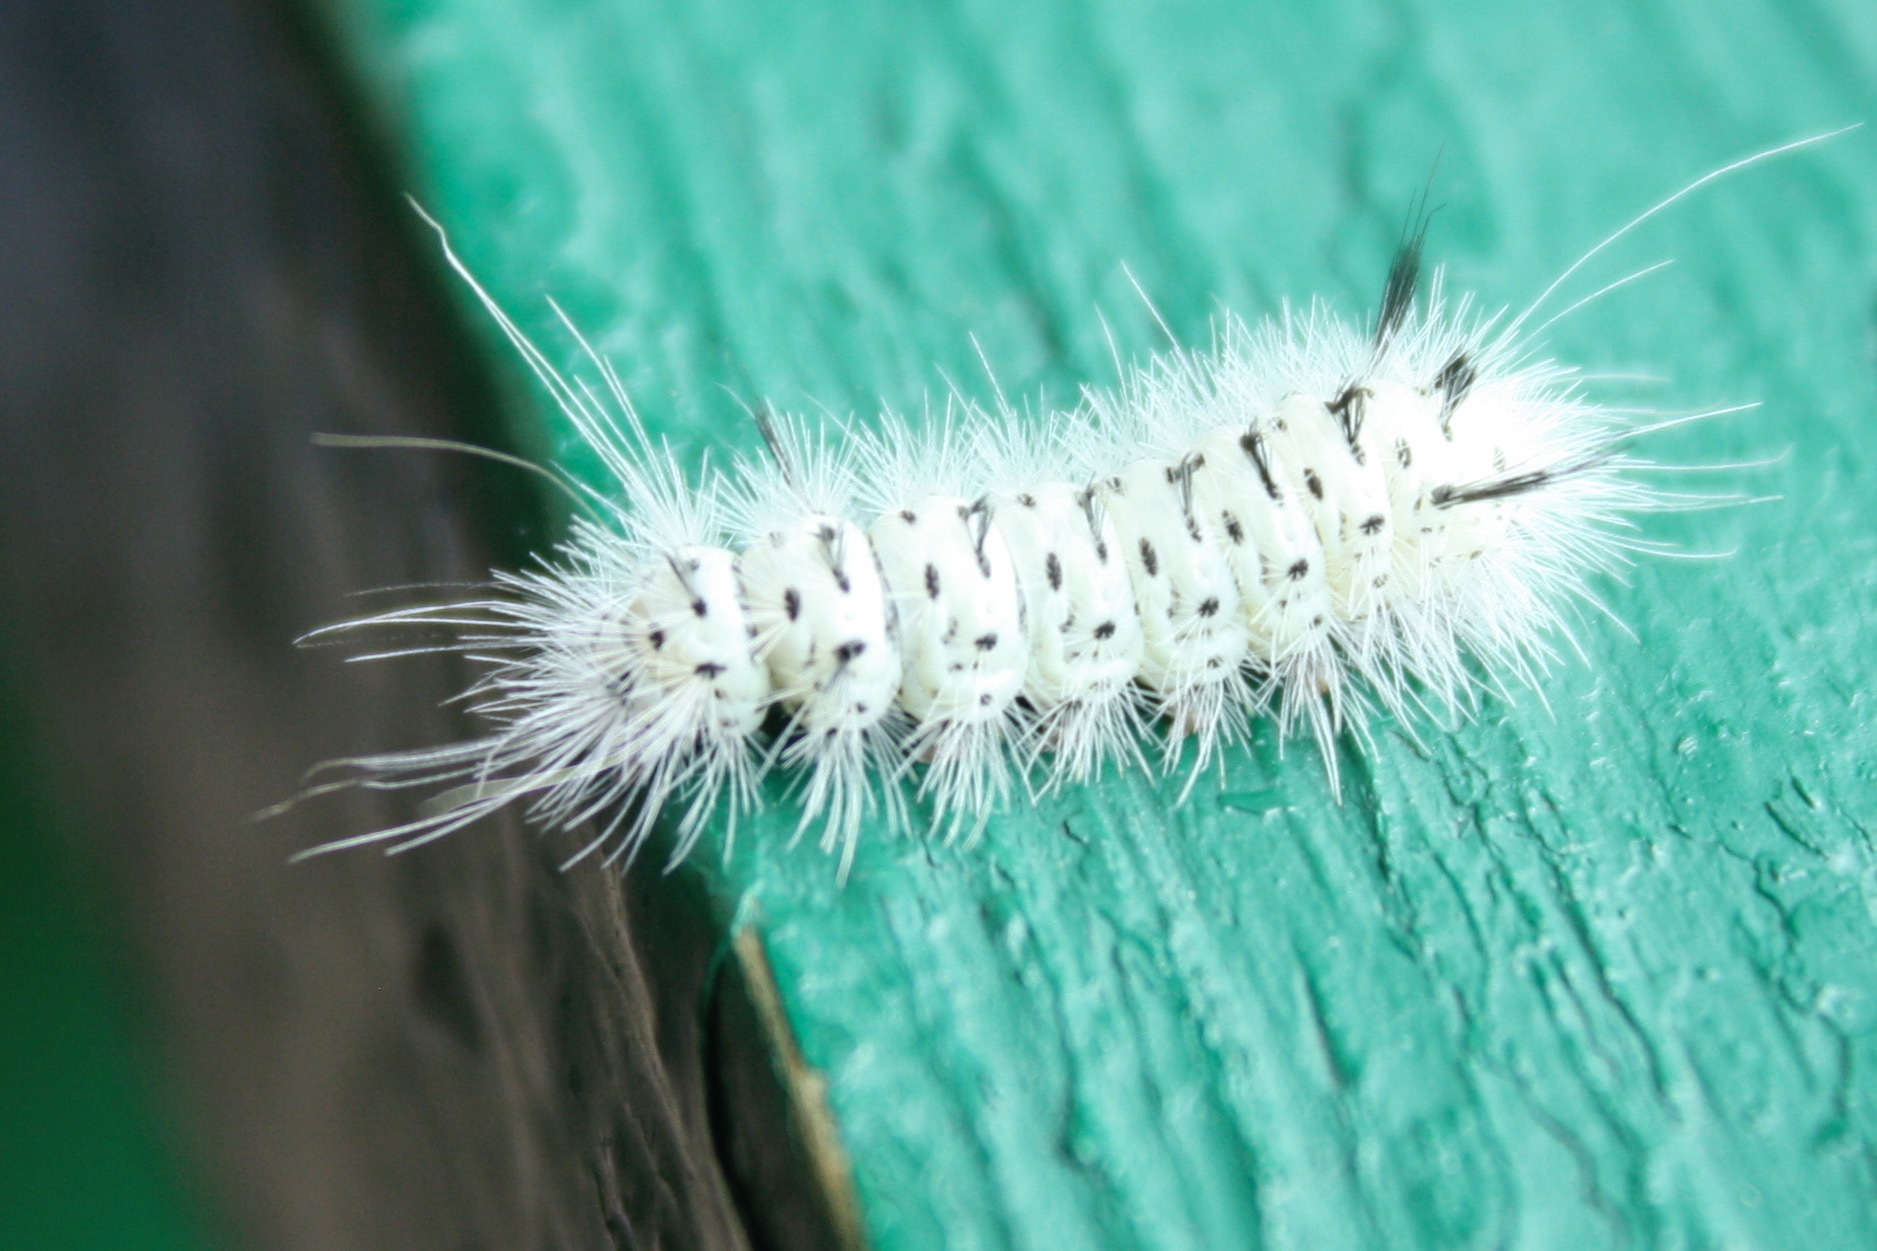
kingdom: Animalia
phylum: Arthropoda
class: Insecta
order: Lepidoptera
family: Erebidae
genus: Lophocampa
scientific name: Lophocampa caryae
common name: Hickory tussock moth
